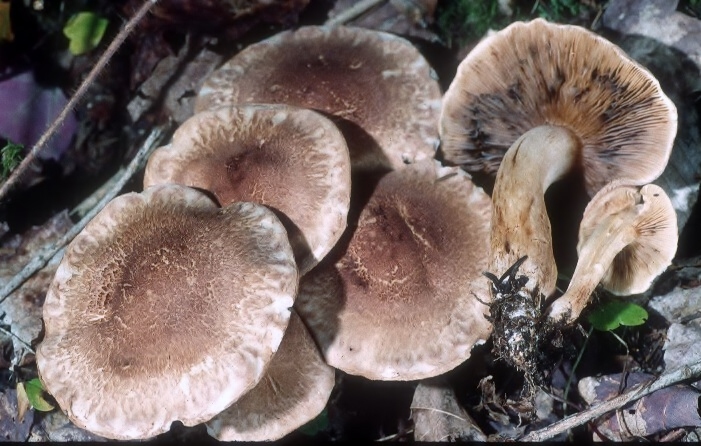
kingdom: Fungi
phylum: Basidiomycota
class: Agaricomycetes
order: Agaricales
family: Tricholomataceae
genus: Tricholoma
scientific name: Tricholoma imbricatum
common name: Matt knight
